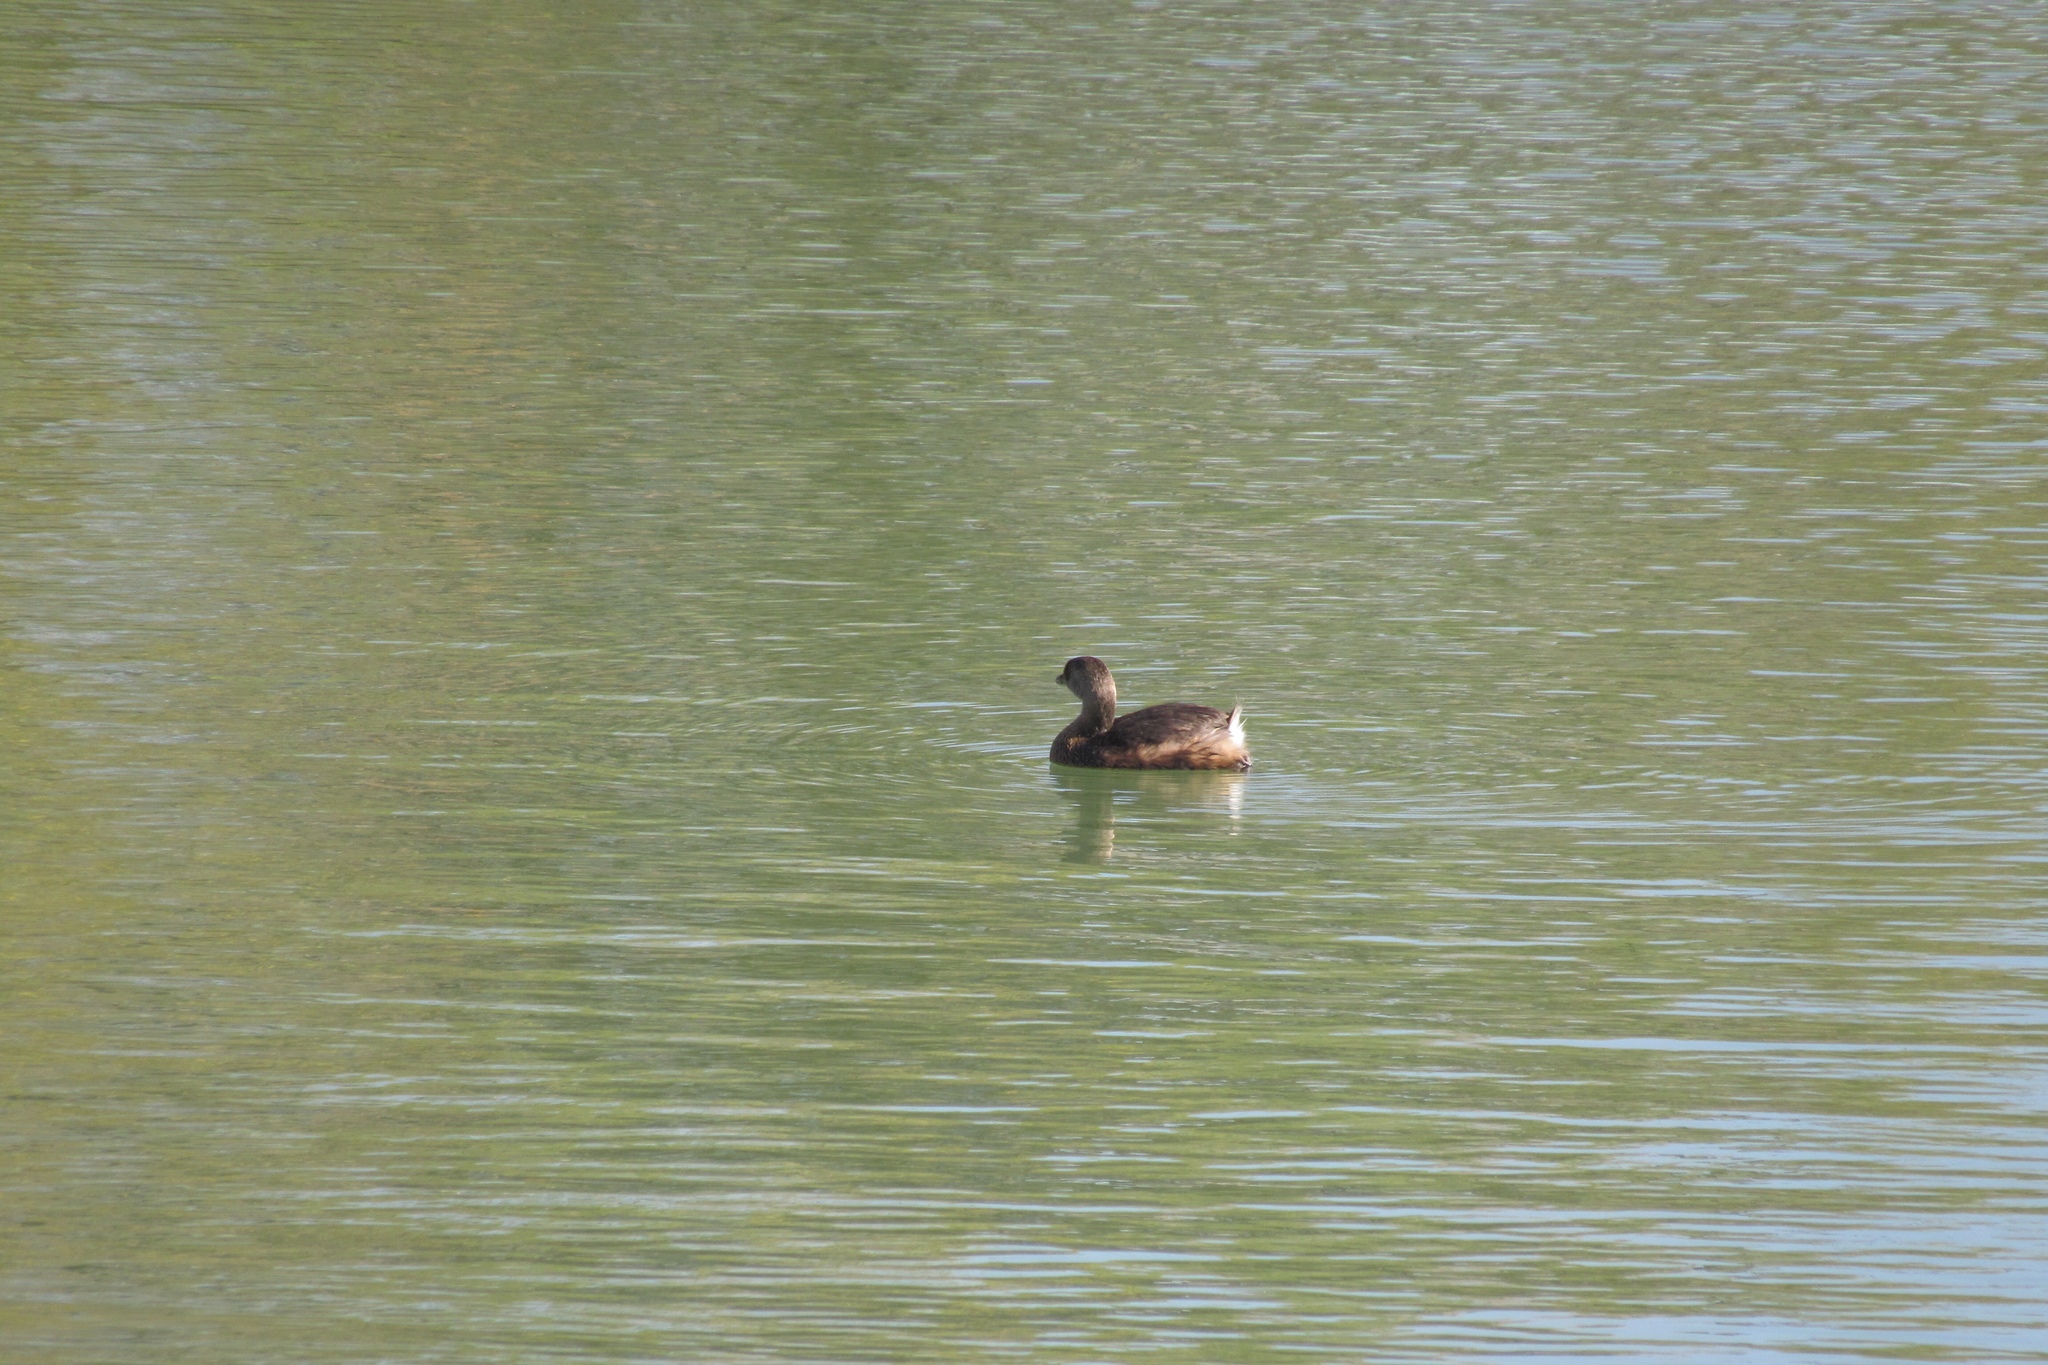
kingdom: Animalia
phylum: Chordata
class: Aves
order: Podicipediformes
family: Podicipedidae
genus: Podilymbus
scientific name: Podilymbus podiceps
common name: Pied-billed grebe
